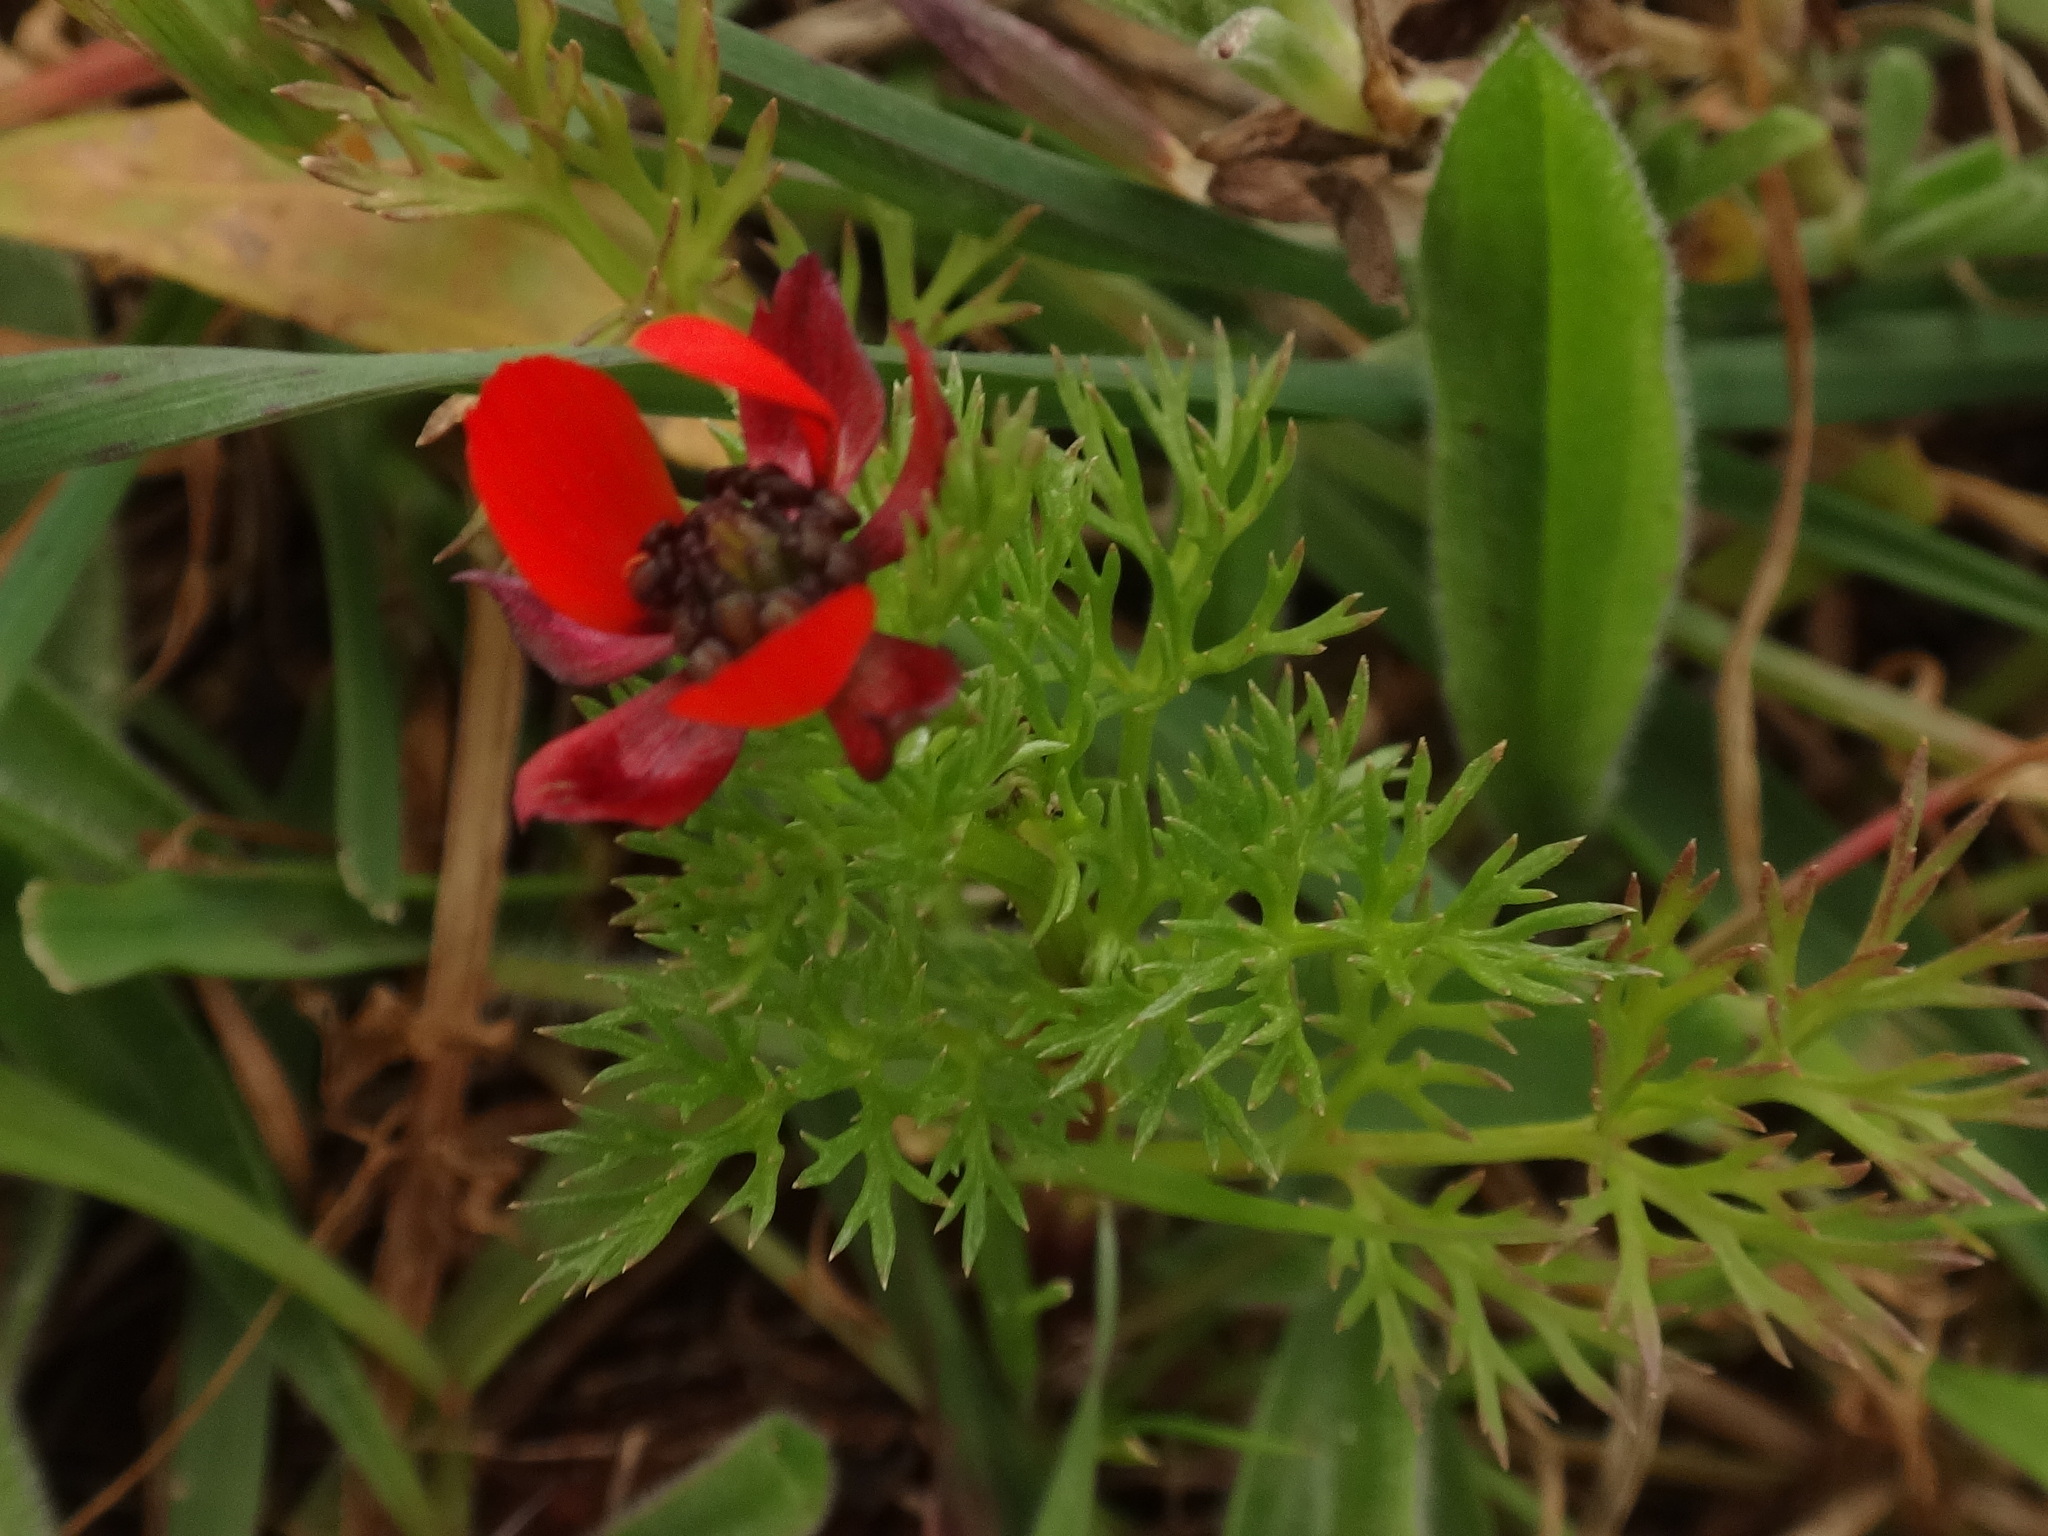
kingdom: Plantae
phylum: Tracheophyta
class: Magnoliopsida
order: Ranunculales
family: Ranunculaceae
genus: Adonis
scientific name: Adonis annua
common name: Pheasant's-eye
